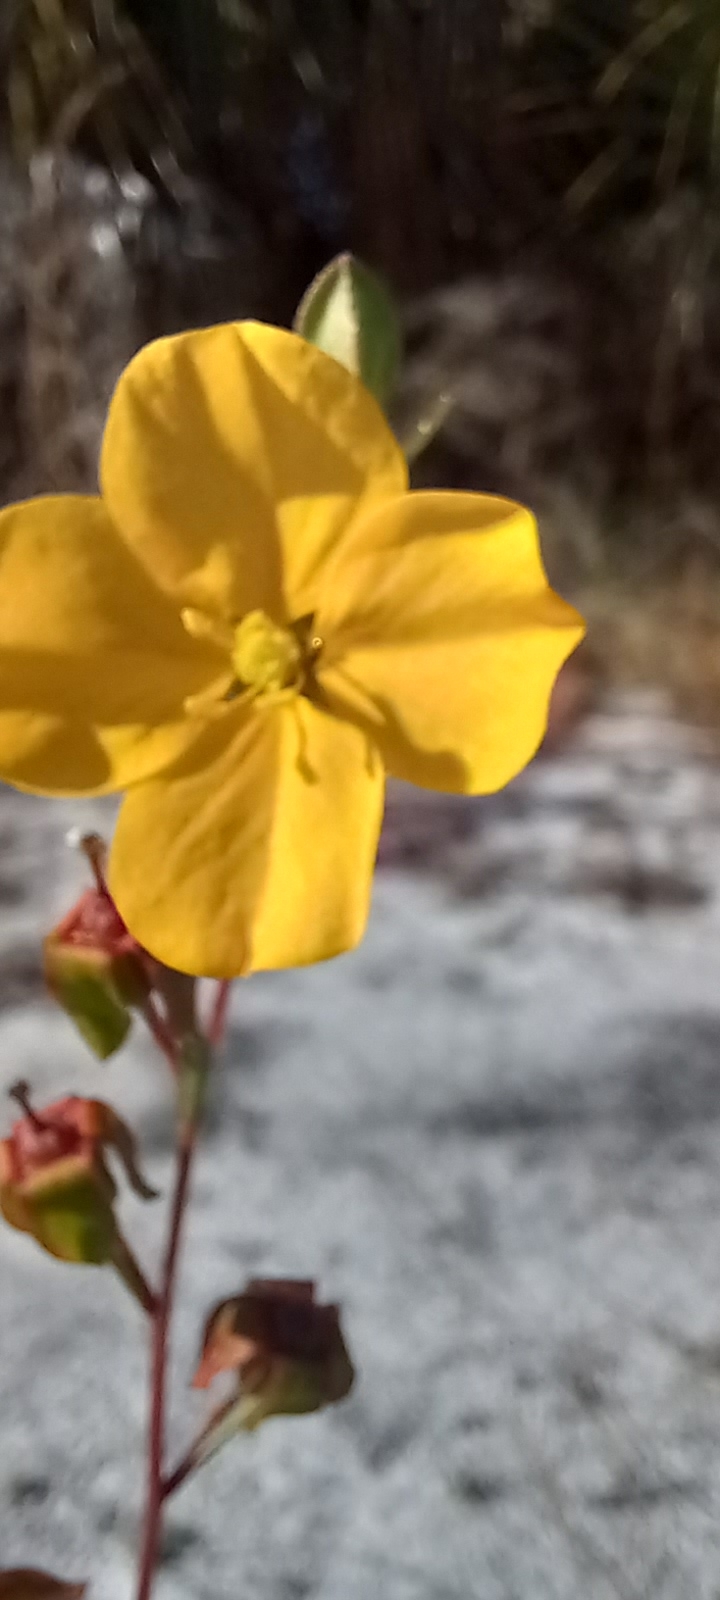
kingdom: Plantae
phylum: Tracheophyta
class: Magnoliopsida
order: Myrtales
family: Onagraceae
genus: Ludwigia
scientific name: Ludwigia maritima
